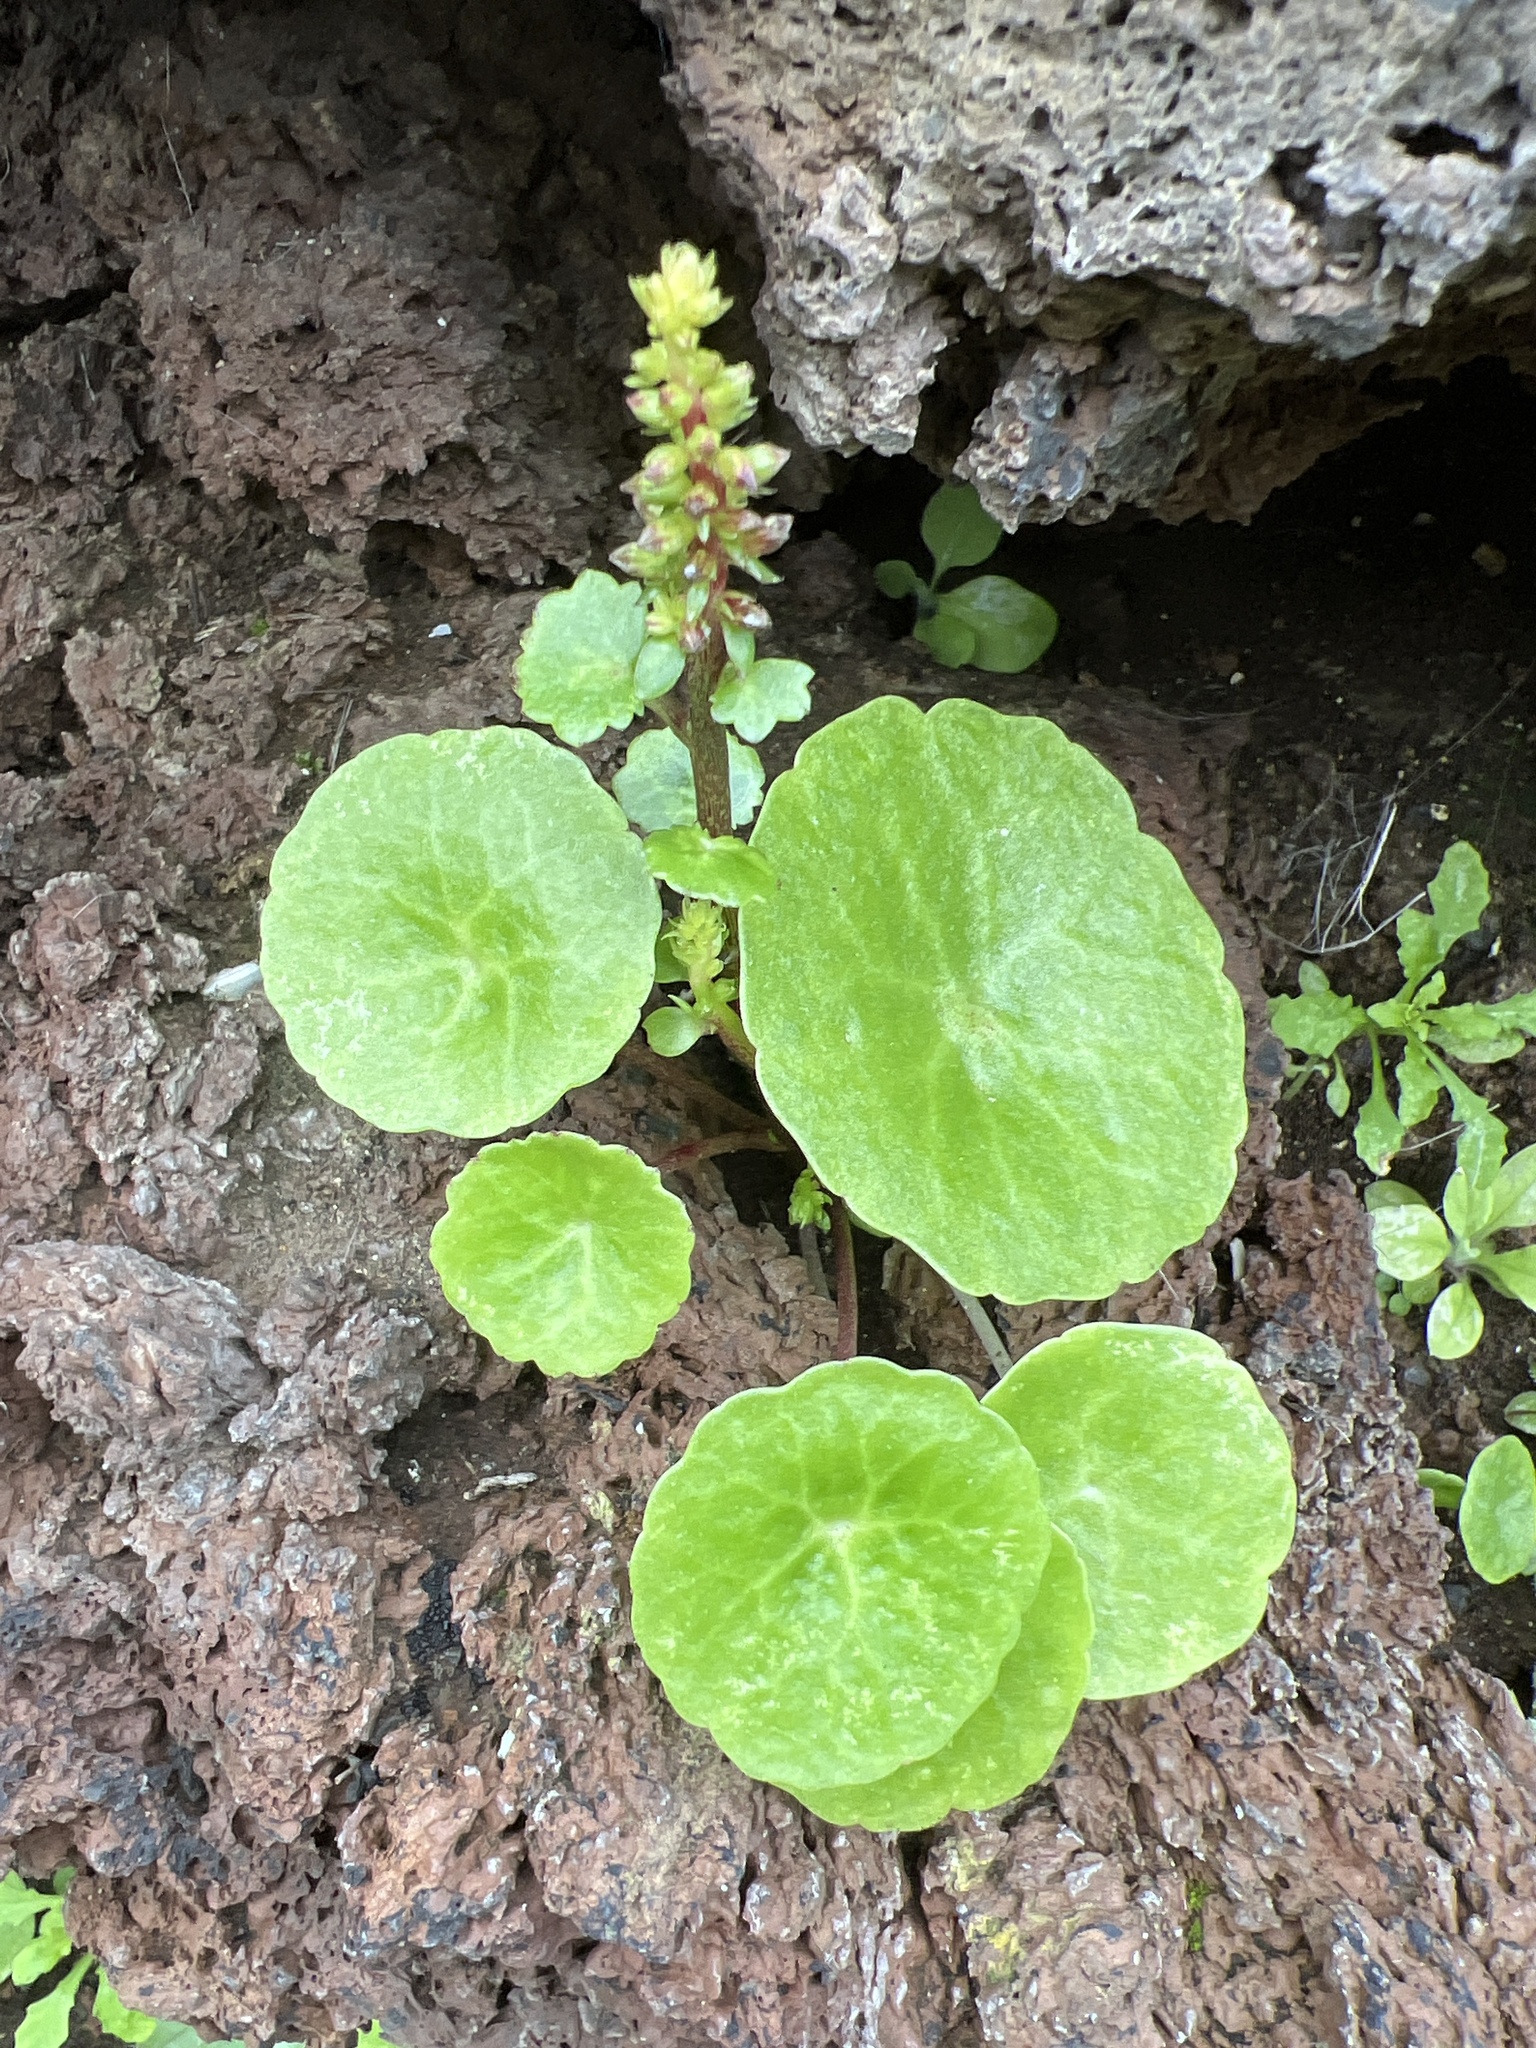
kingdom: Plantae
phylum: Tracheophyta
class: Magnoliopsida
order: Saxifragales
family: Crassulaceae
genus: Umbilicus
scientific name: Umbilicus horizontalis
